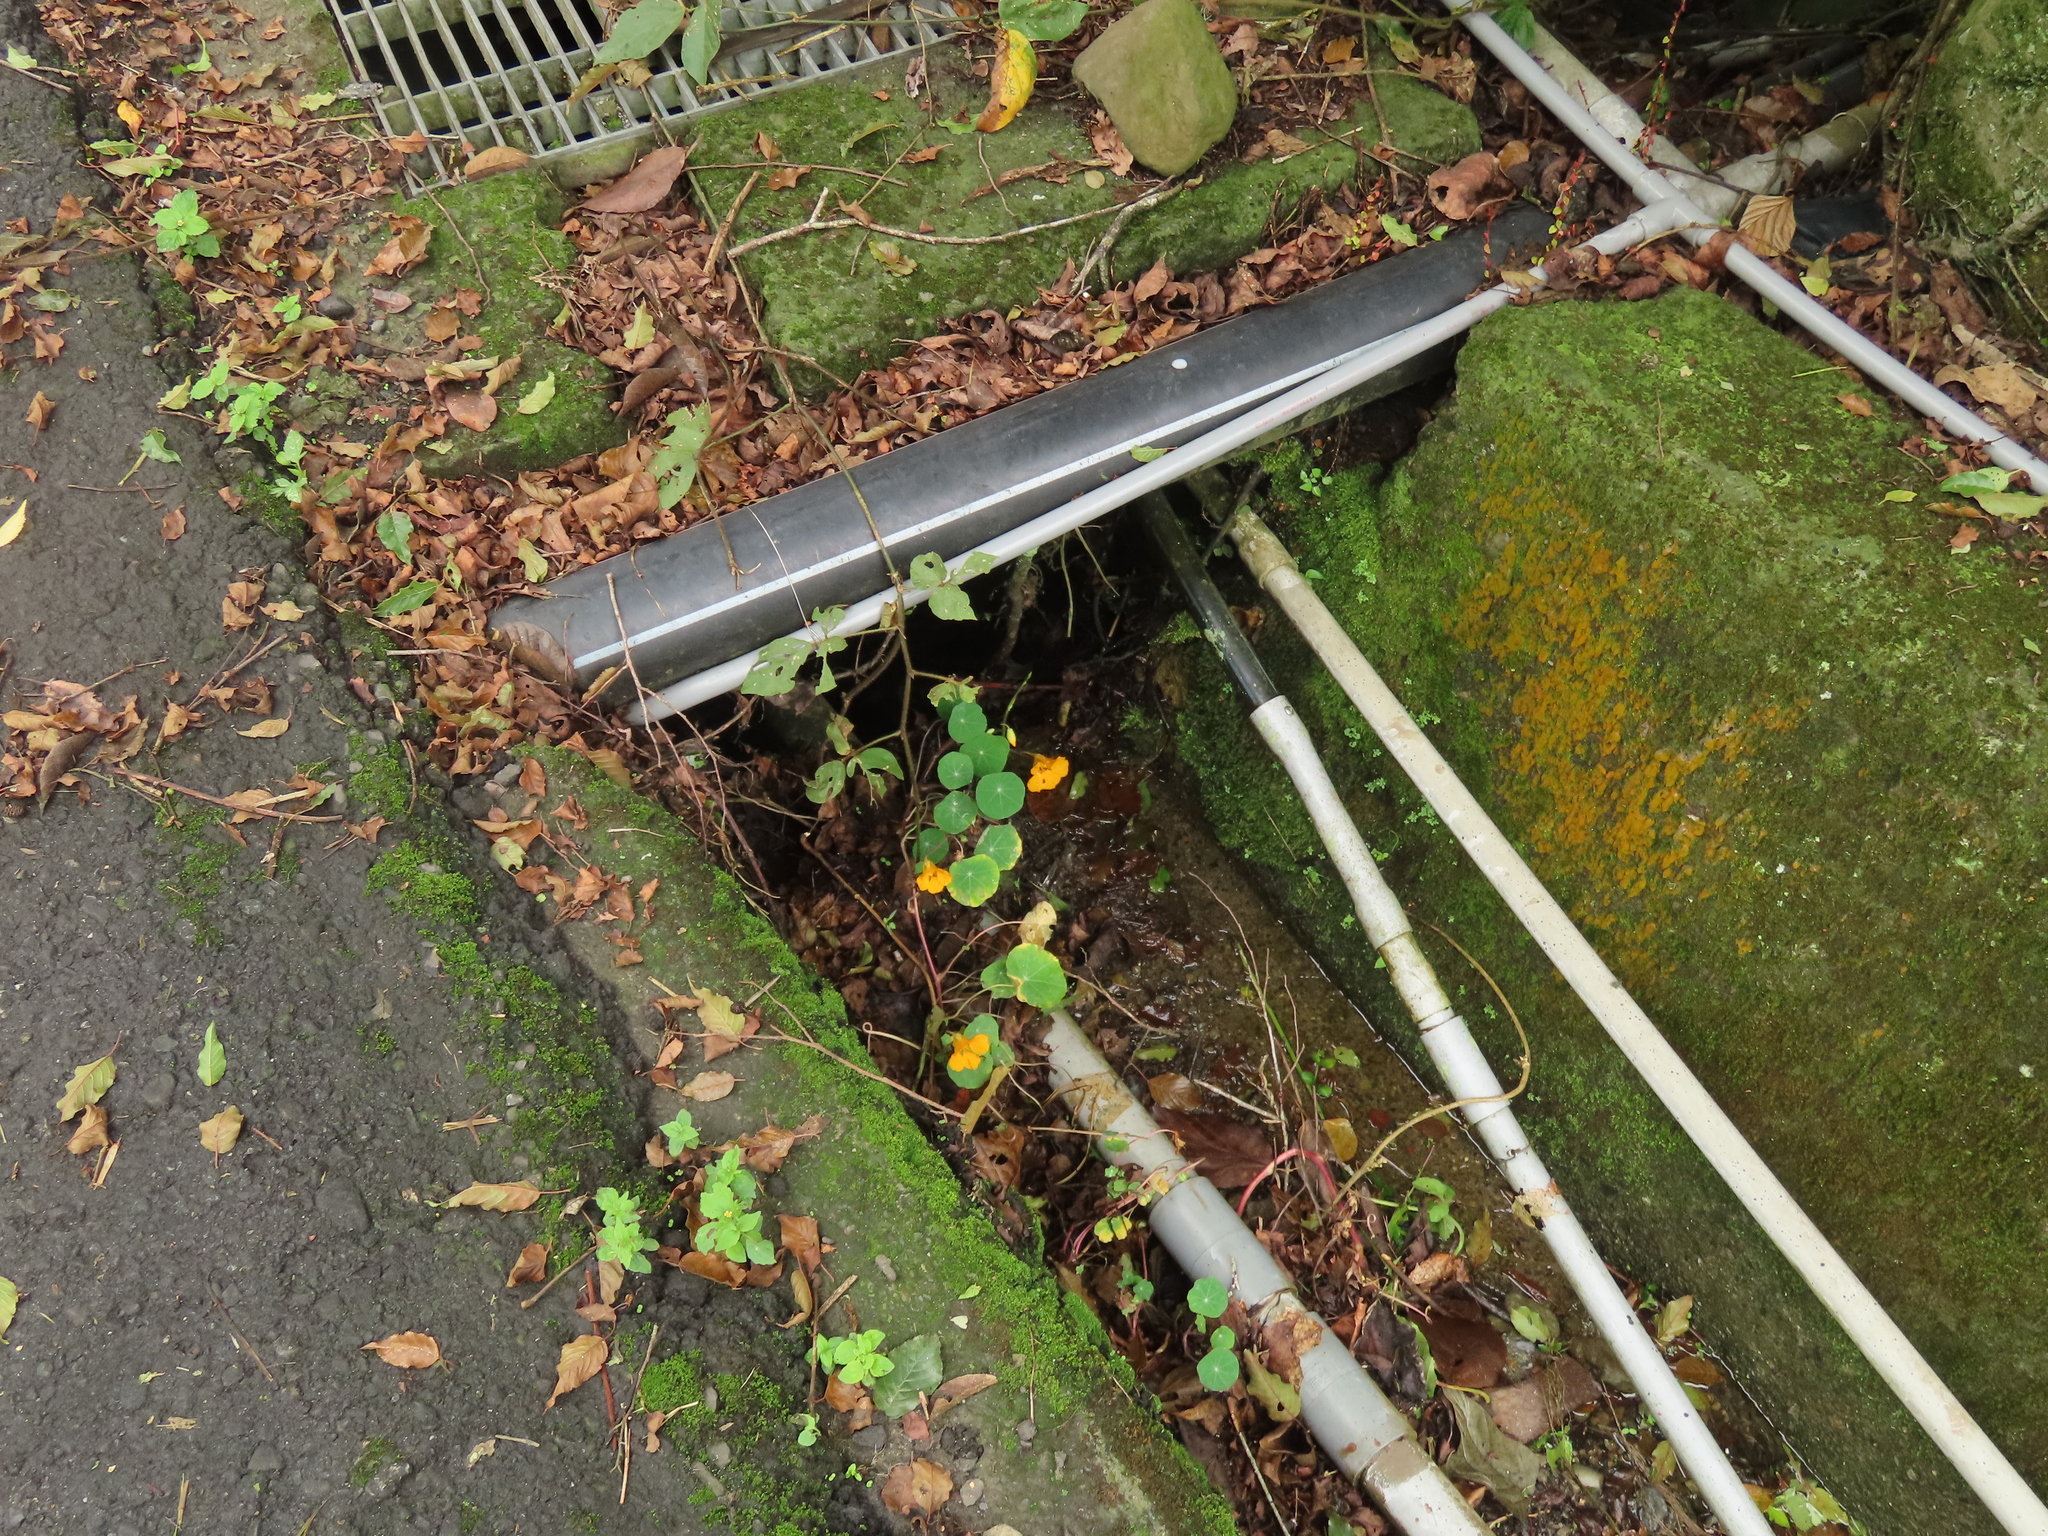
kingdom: Plantae
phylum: Tracheophyta
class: Magnoliopsida
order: Brassicales
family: Tropaeolaceae
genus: Tropaeolum
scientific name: Tropaeolum majus
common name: Nasturtium
